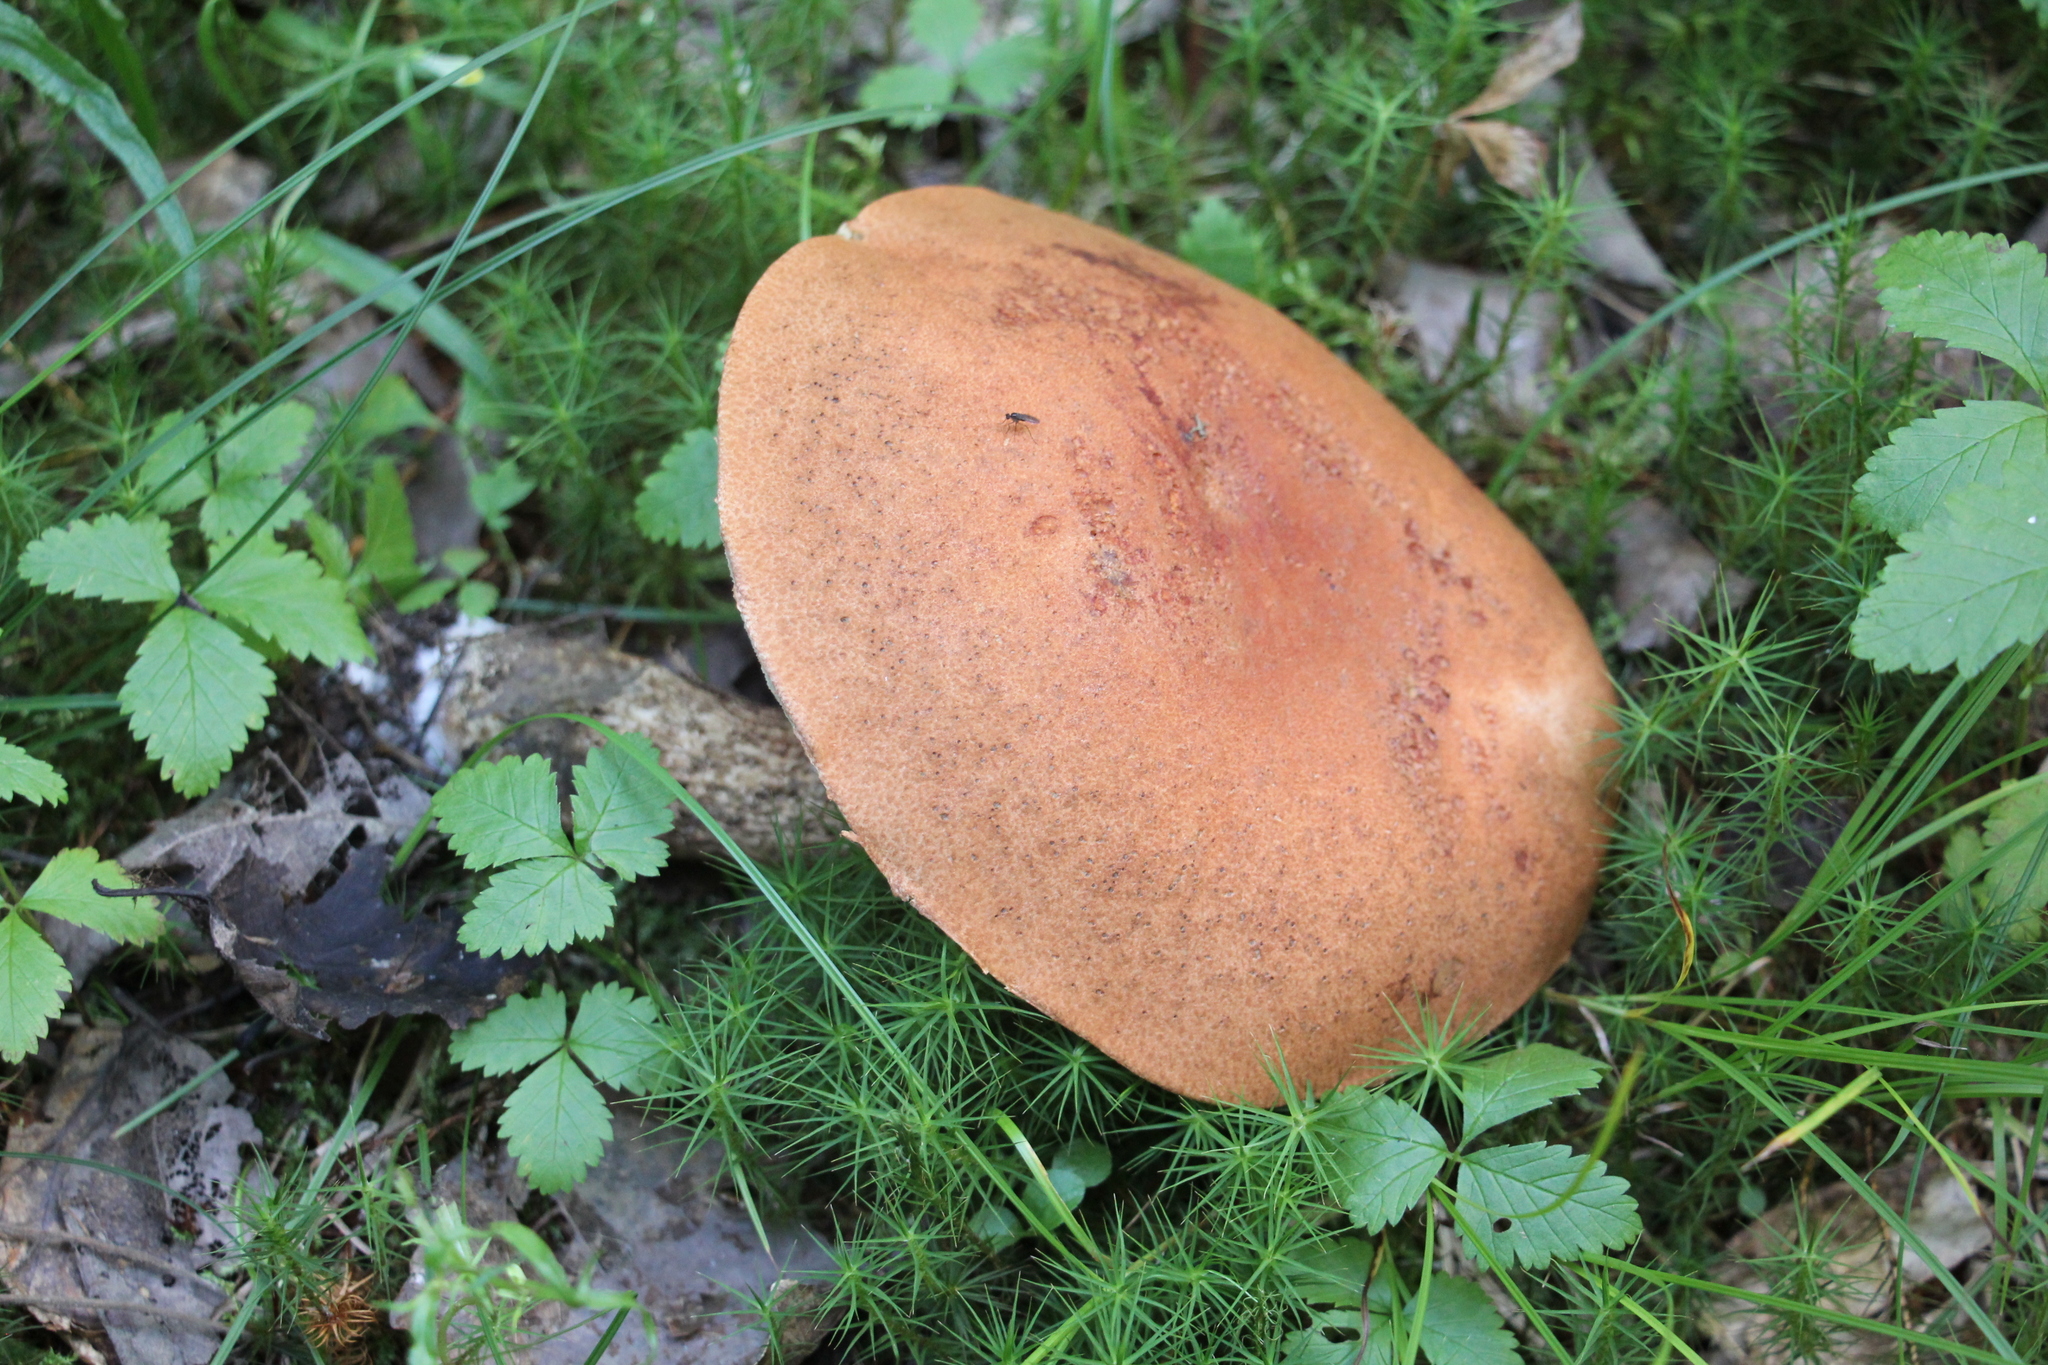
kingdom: Fungi
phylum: Basidiomycota
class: Agaricomycetes
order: Boletales
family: Boletaceae
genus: Leccinum
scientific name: Leccinum versipelle
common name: Orange birch bolete
